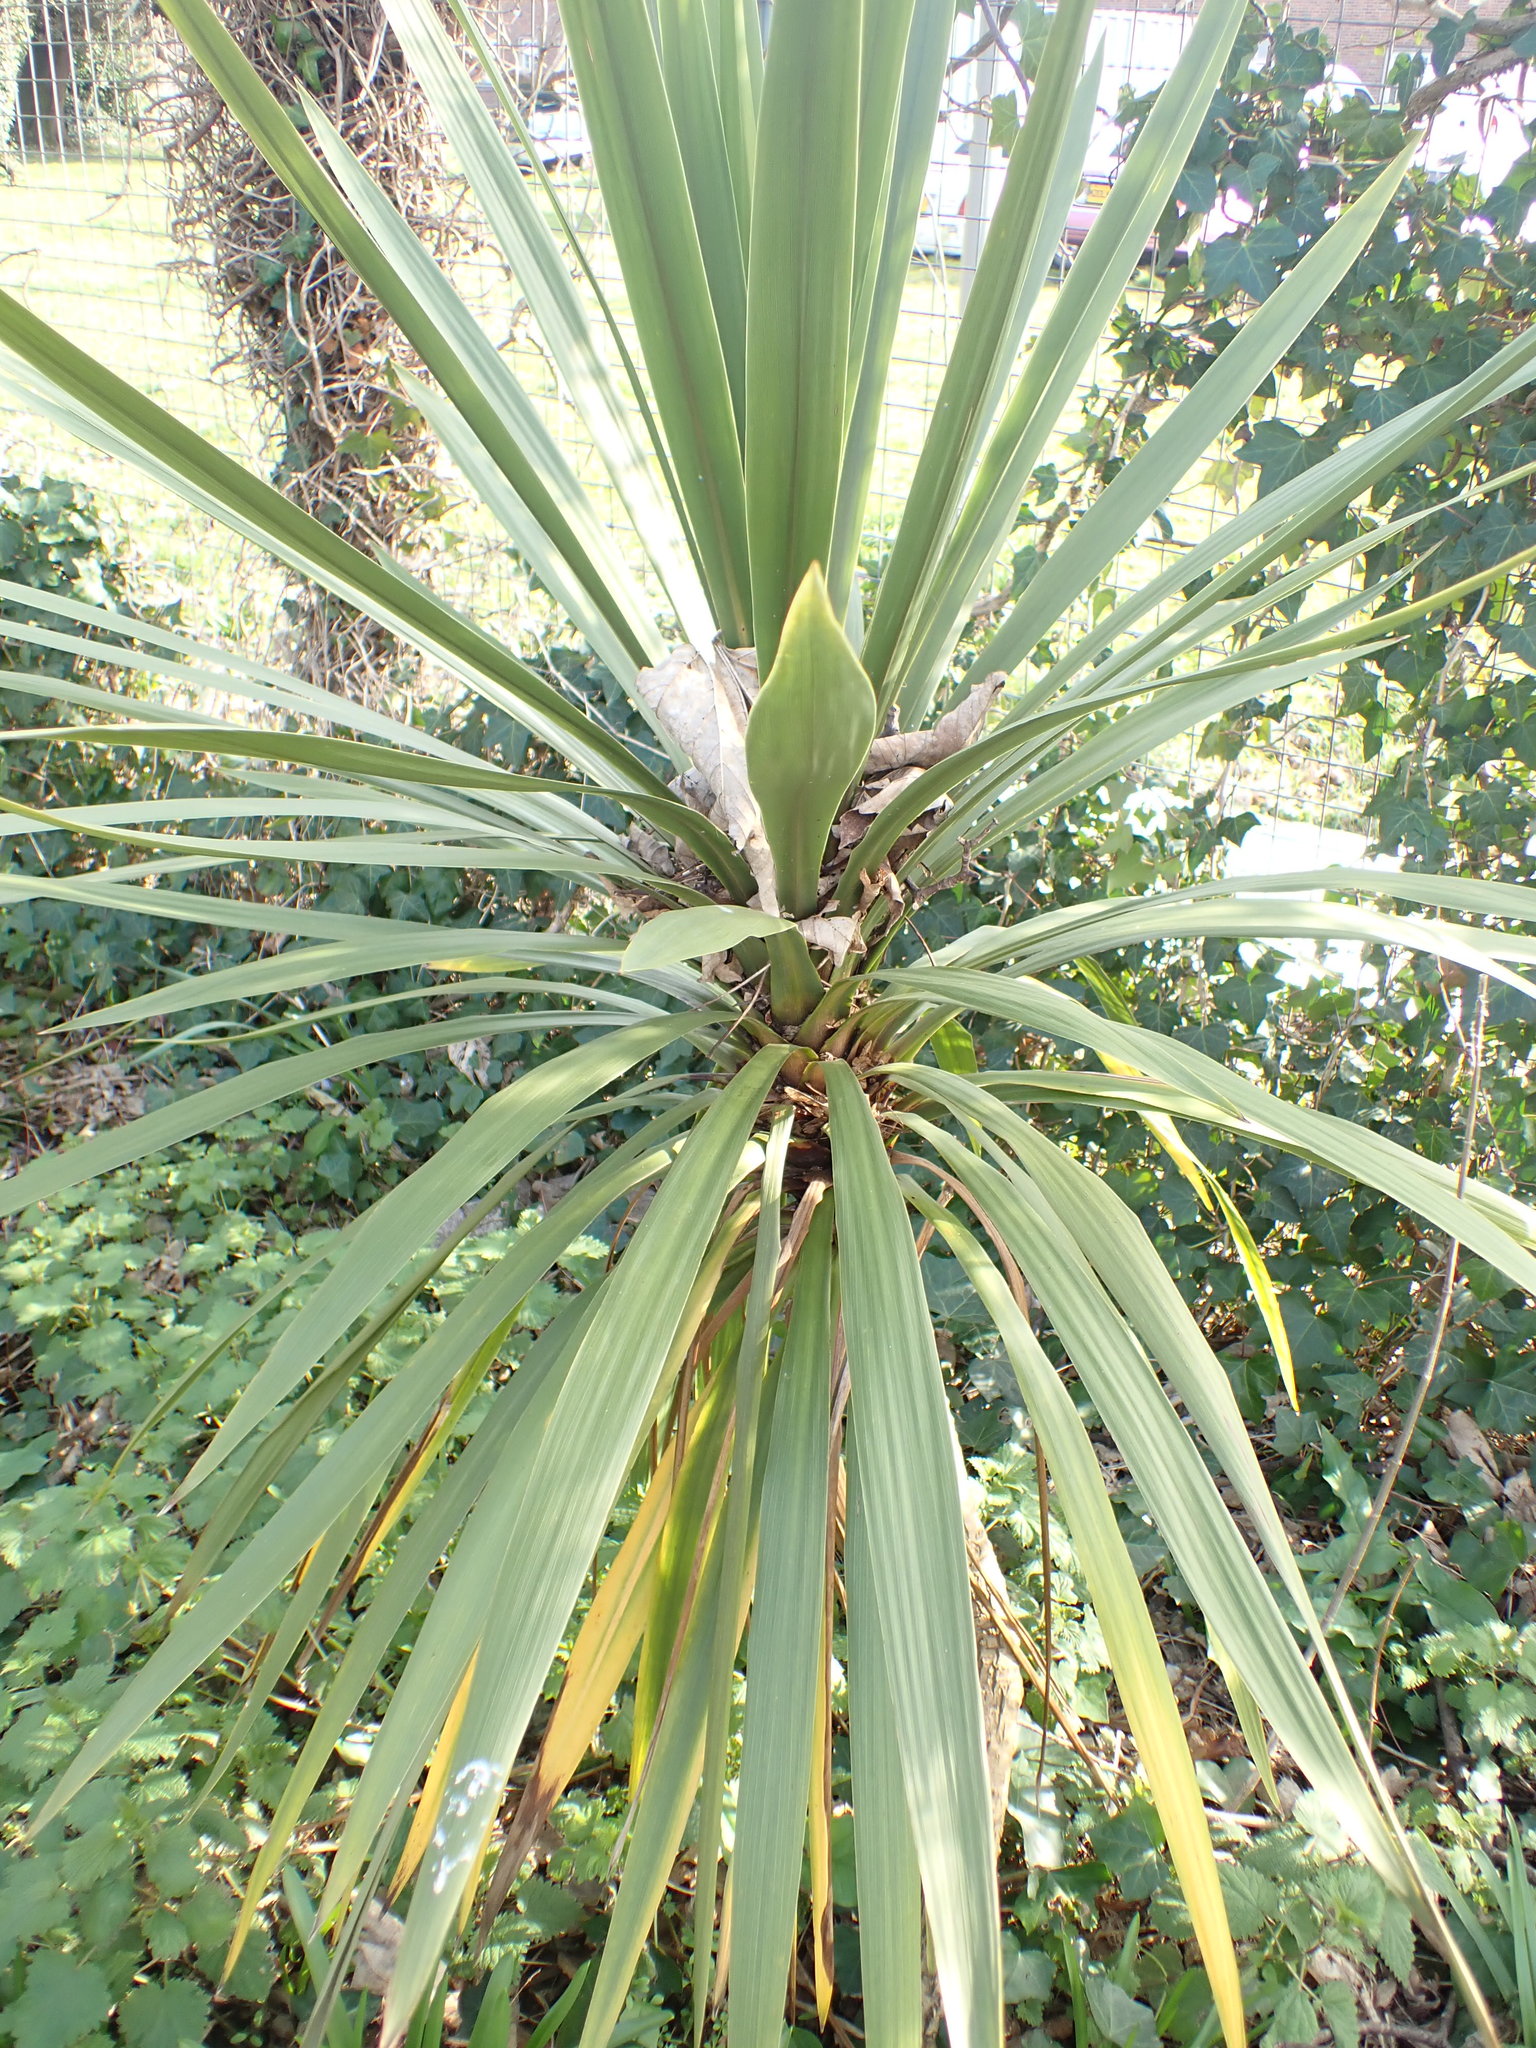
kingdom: Plantae
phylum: Tracheophyta
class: Liliopsida
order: Asparagales
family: Asparagaceae
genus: Cordyline
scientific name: Cordyline australis
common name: Cabbage-palm
